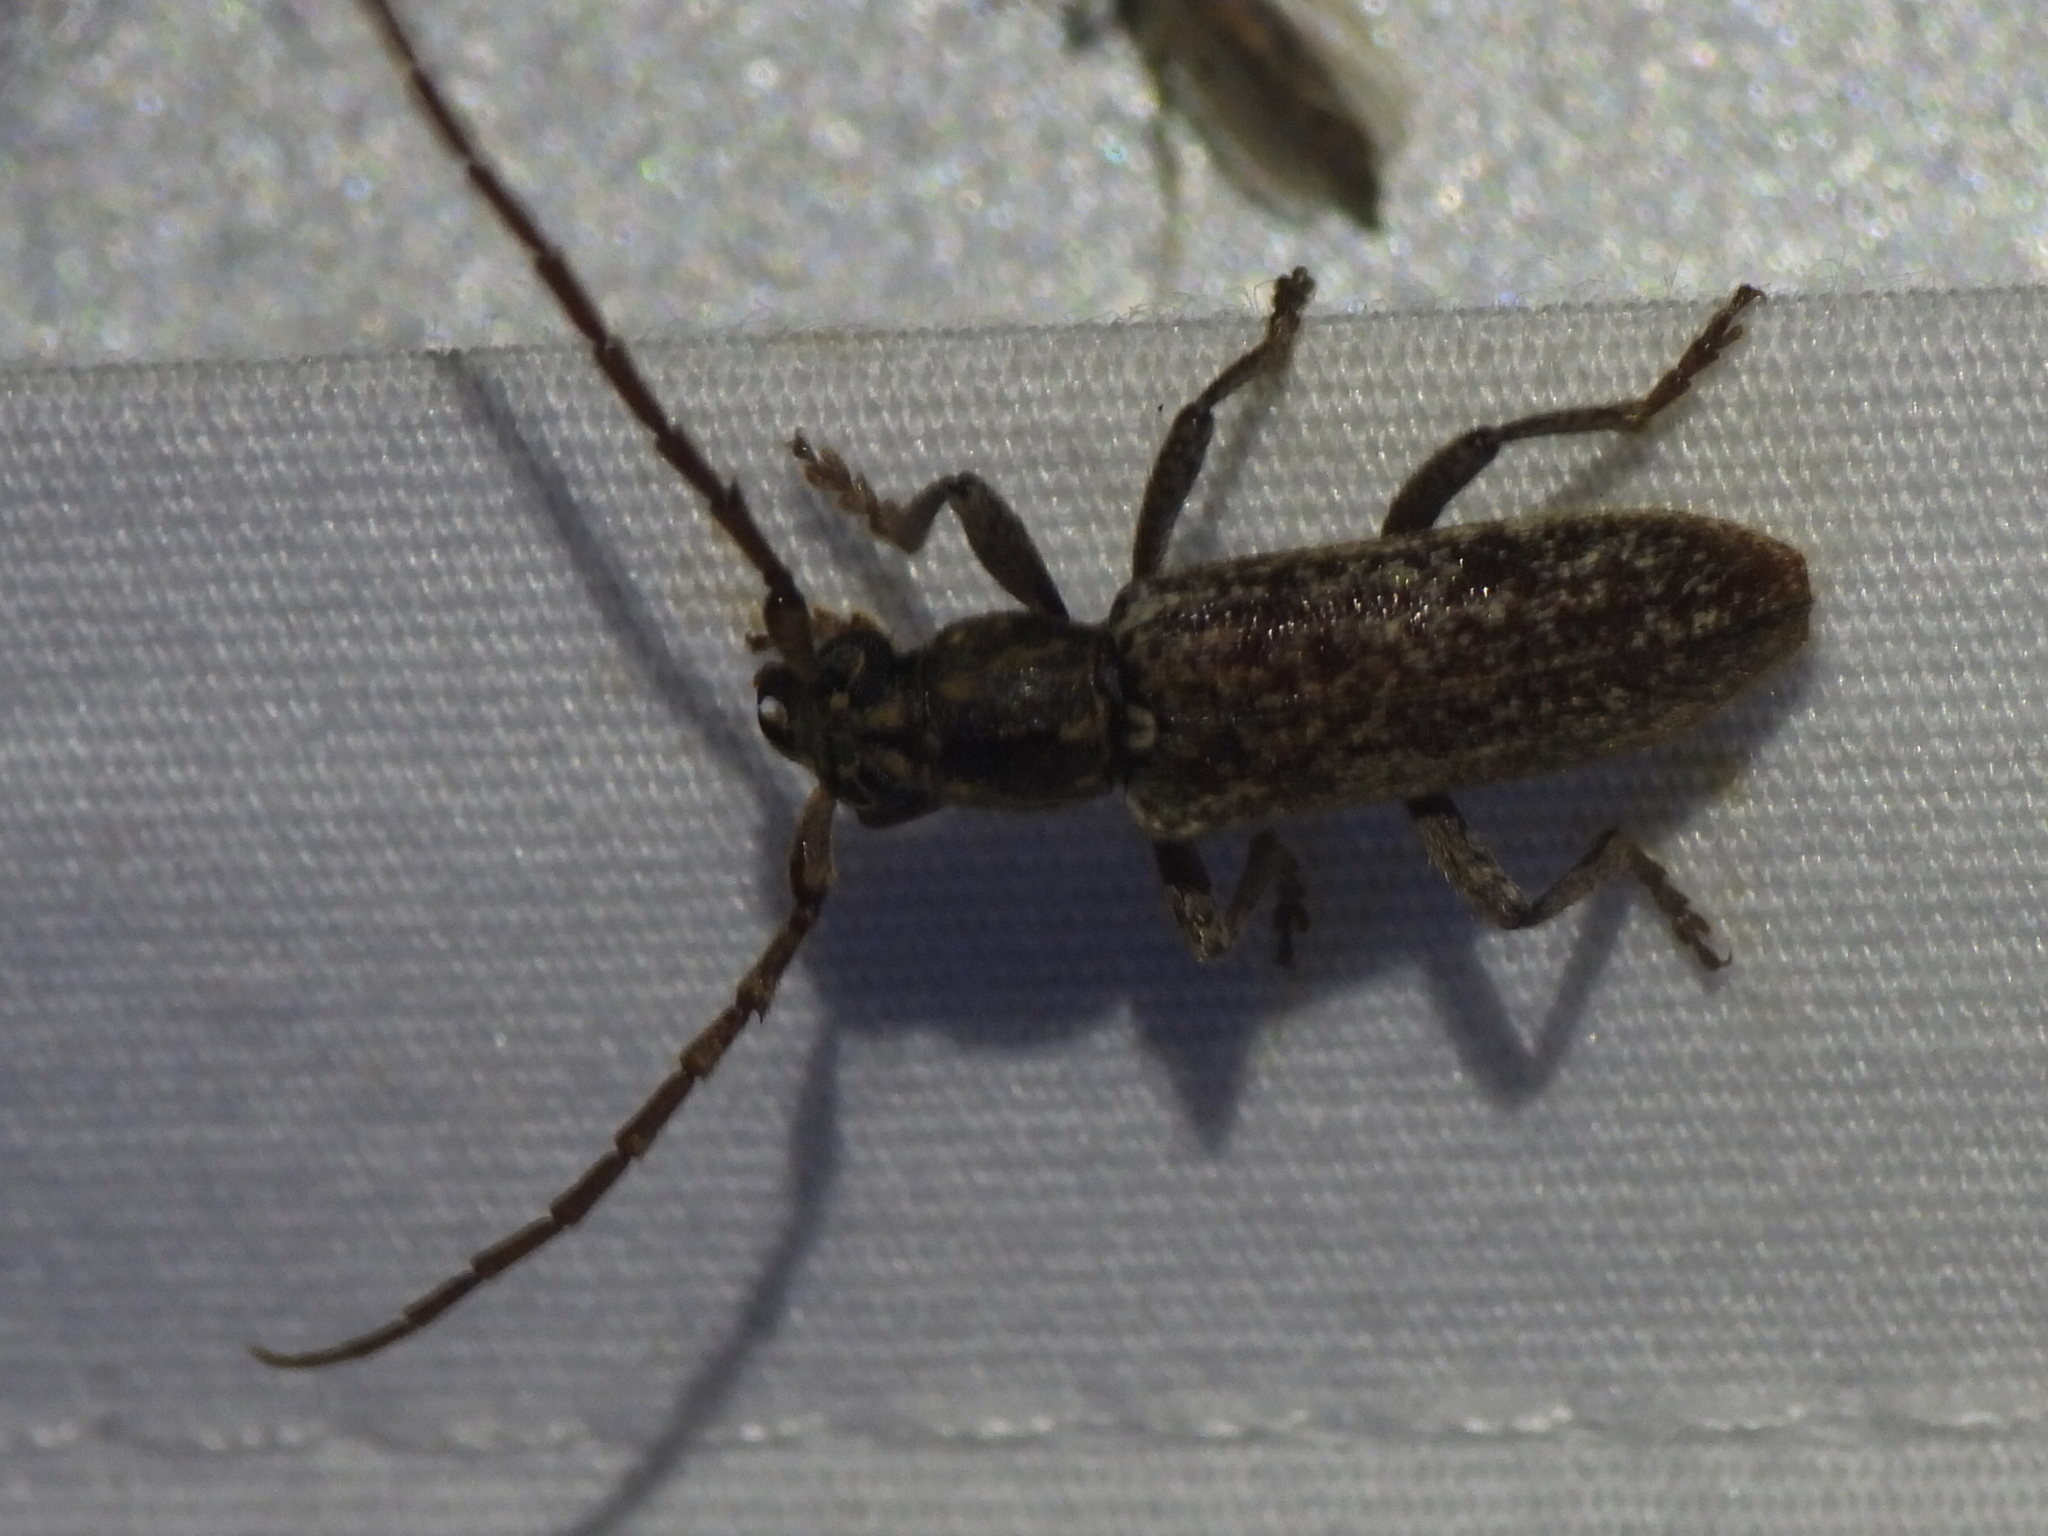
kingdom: Animalia
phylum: Arthropoda
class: Insecta
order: Coleoptera
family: Cerambycidae
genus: Anelaphus
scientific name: Anelaphus debilis
